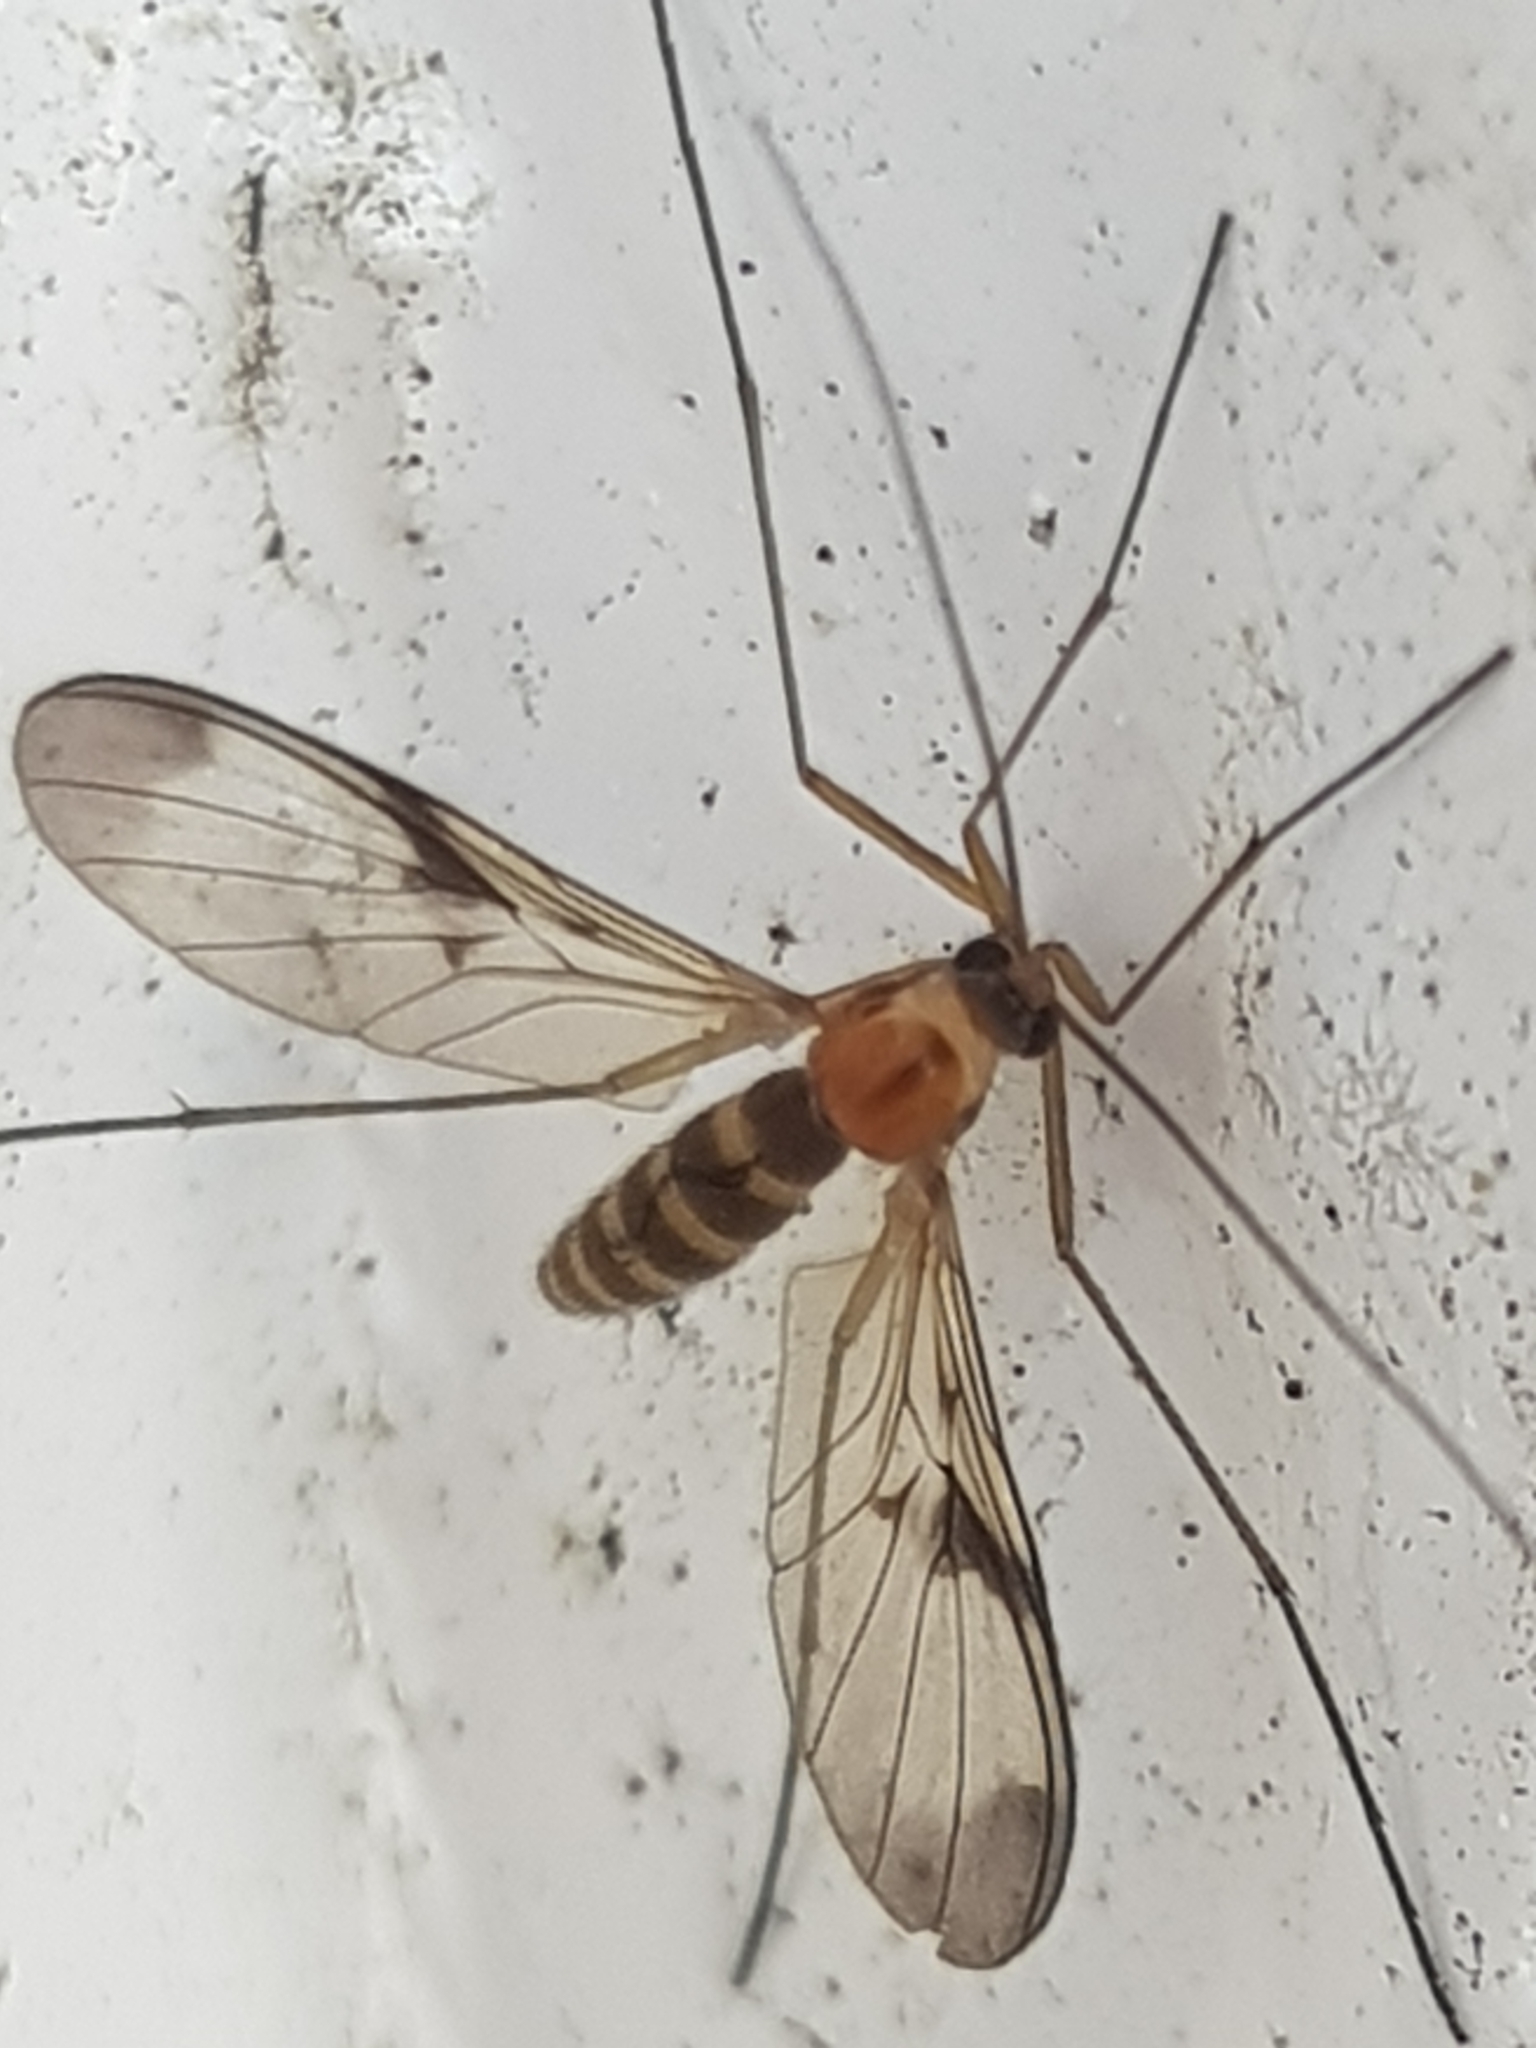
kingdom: Animalia
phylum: Arthropoda
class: Insecta
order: Diptera
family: Keroplatidae
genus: Macrocera
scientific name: Macrocera scoparia
